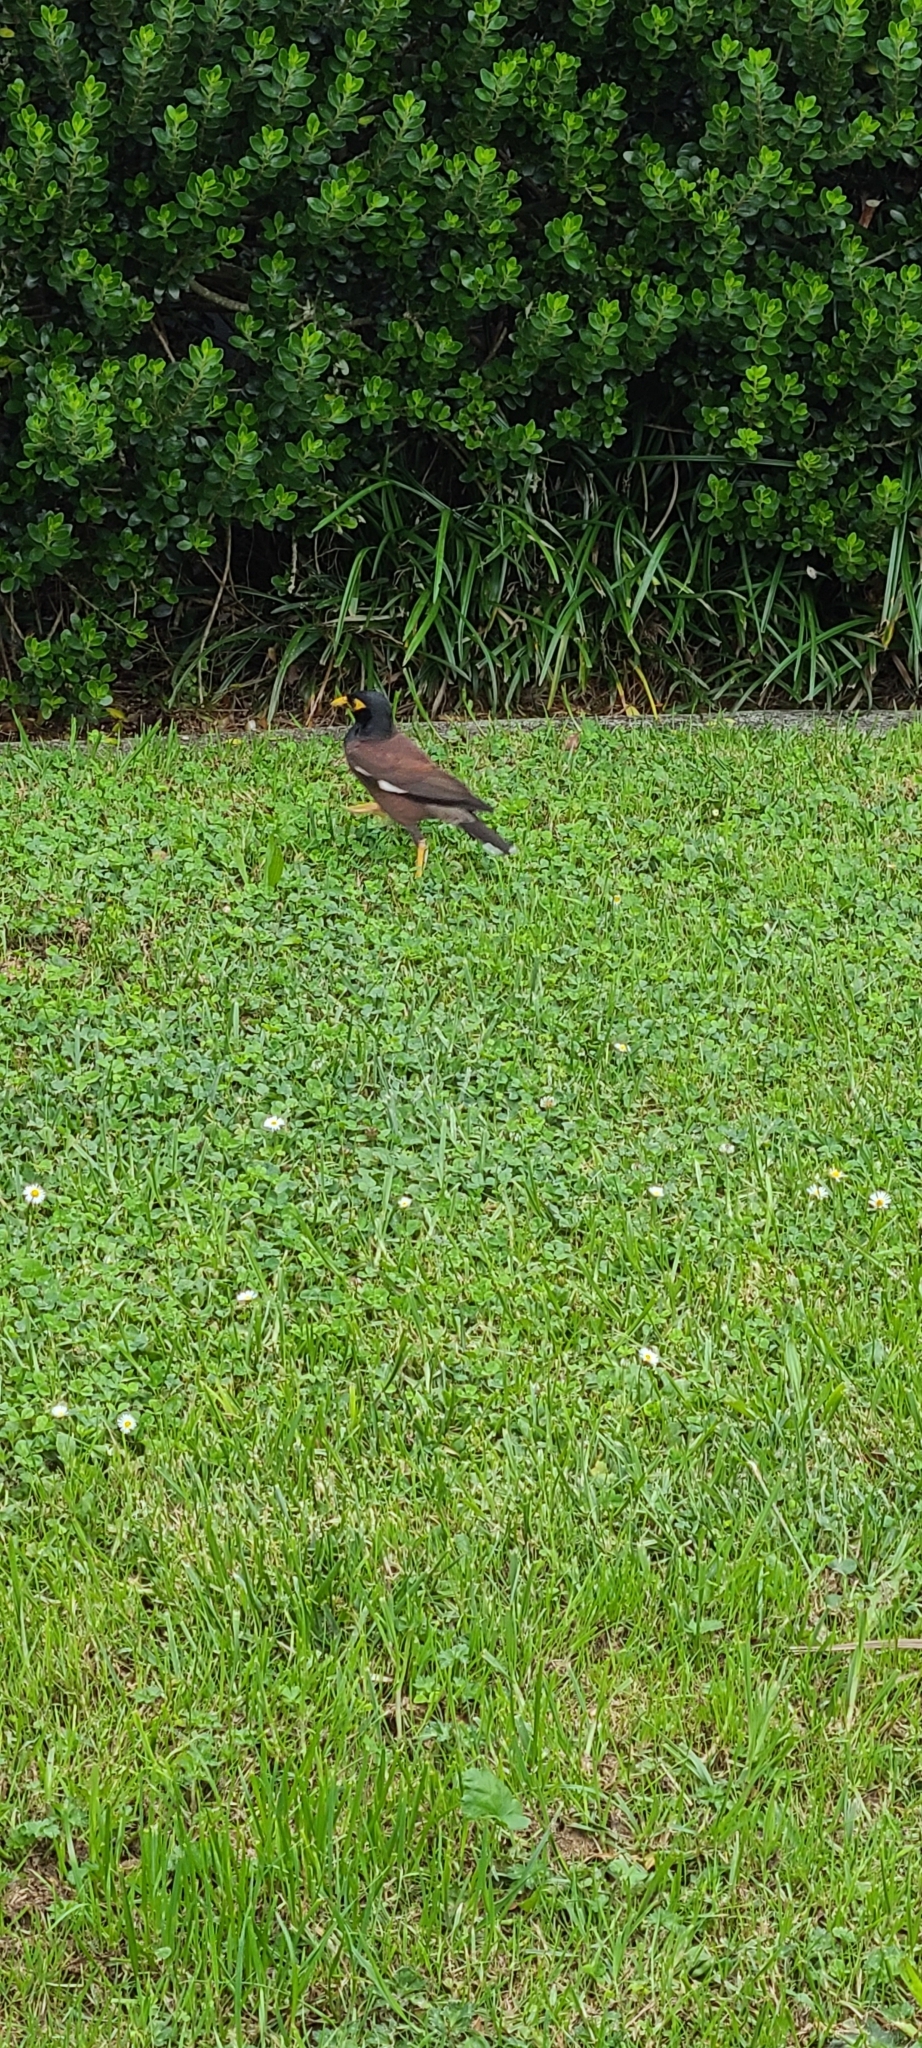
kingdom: Animalia
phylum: Chordata
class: Aves
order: Passeriformes
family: Sturnidae
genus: Acridotheres
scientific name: Acridotheres tristis
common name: Common myna
